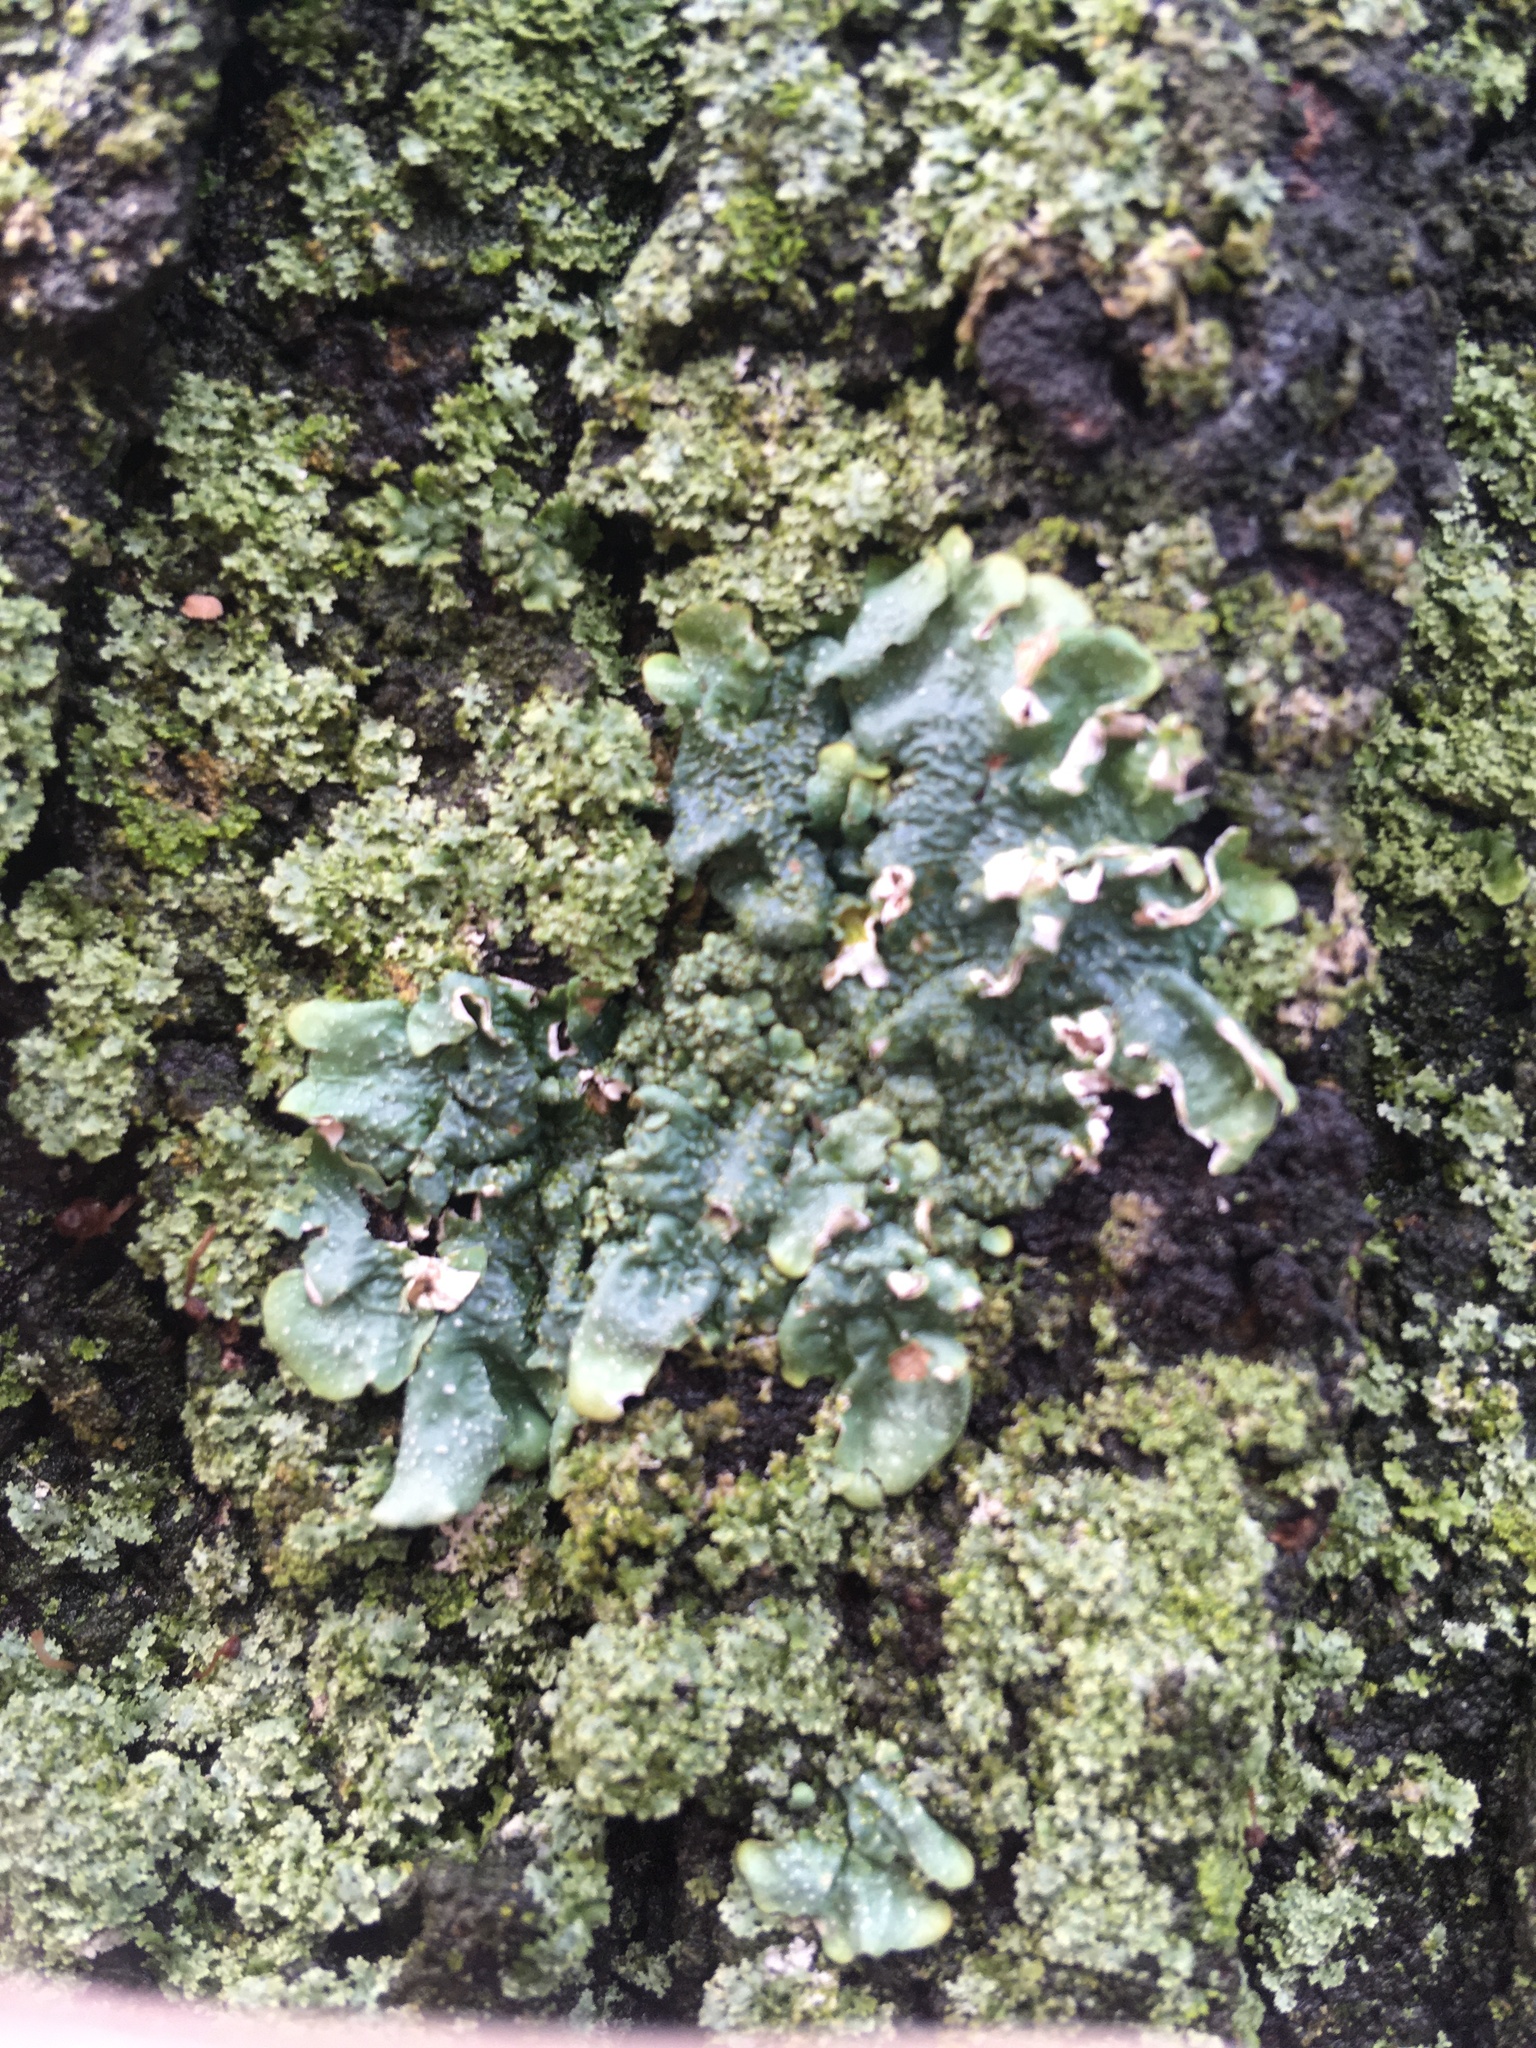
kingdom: Fungi
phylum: Ascomycota
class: Lecanoromycetes
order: Lecanorales
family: Parmeliaceae
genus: Punctelia
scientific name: Punctelia rudecta
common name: Rough speckled shield lichen
